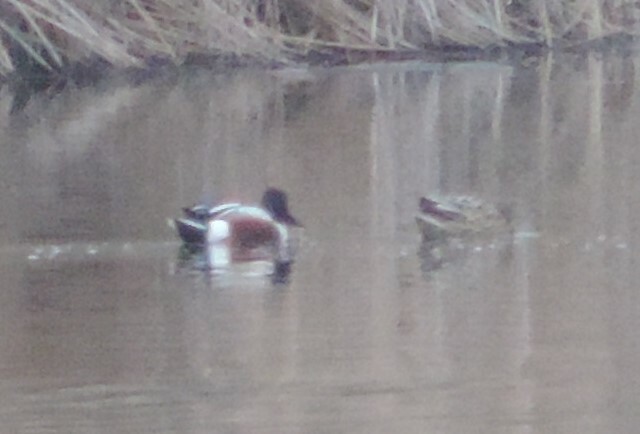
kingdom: Animalia
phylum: Chordata
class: Aves
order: Anseriformes
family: Anatidae
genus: Spatula
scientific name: Spatula clypeata
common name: Northern shoveler
